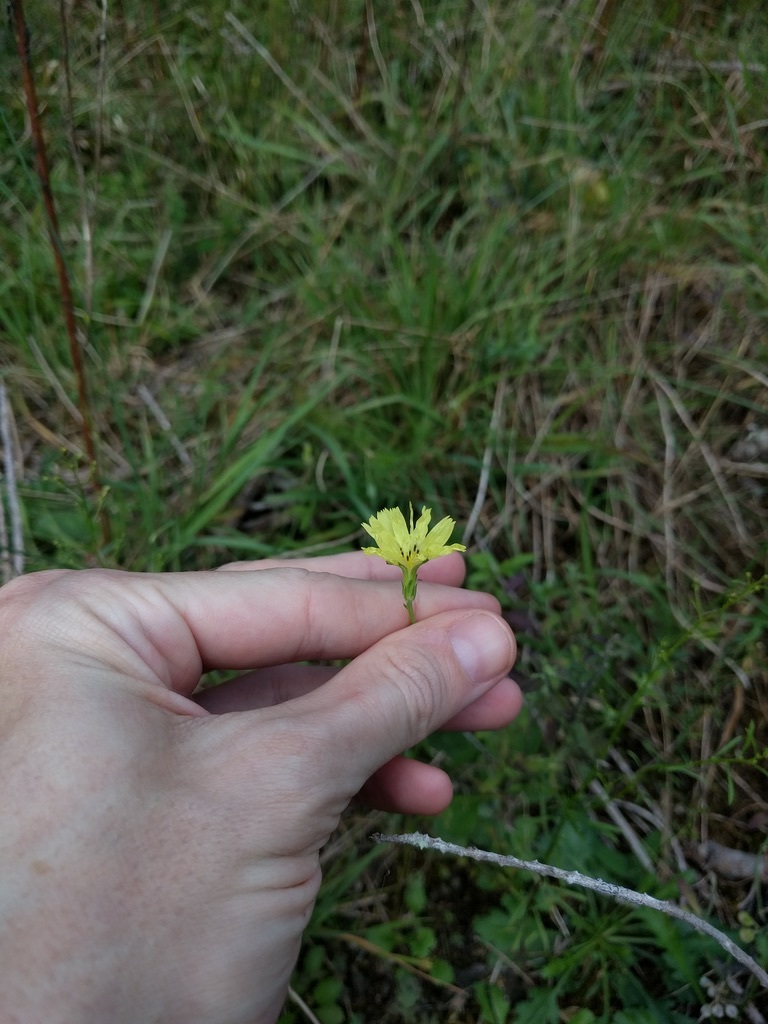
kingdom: Plantae
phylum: Tracheophyta
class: Magnoliopsida
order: Asterales
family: Asteraceae
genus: Pyrrhopappus
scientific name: Pyrrhopappus carolinianus
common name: Carolina desert-chicory
